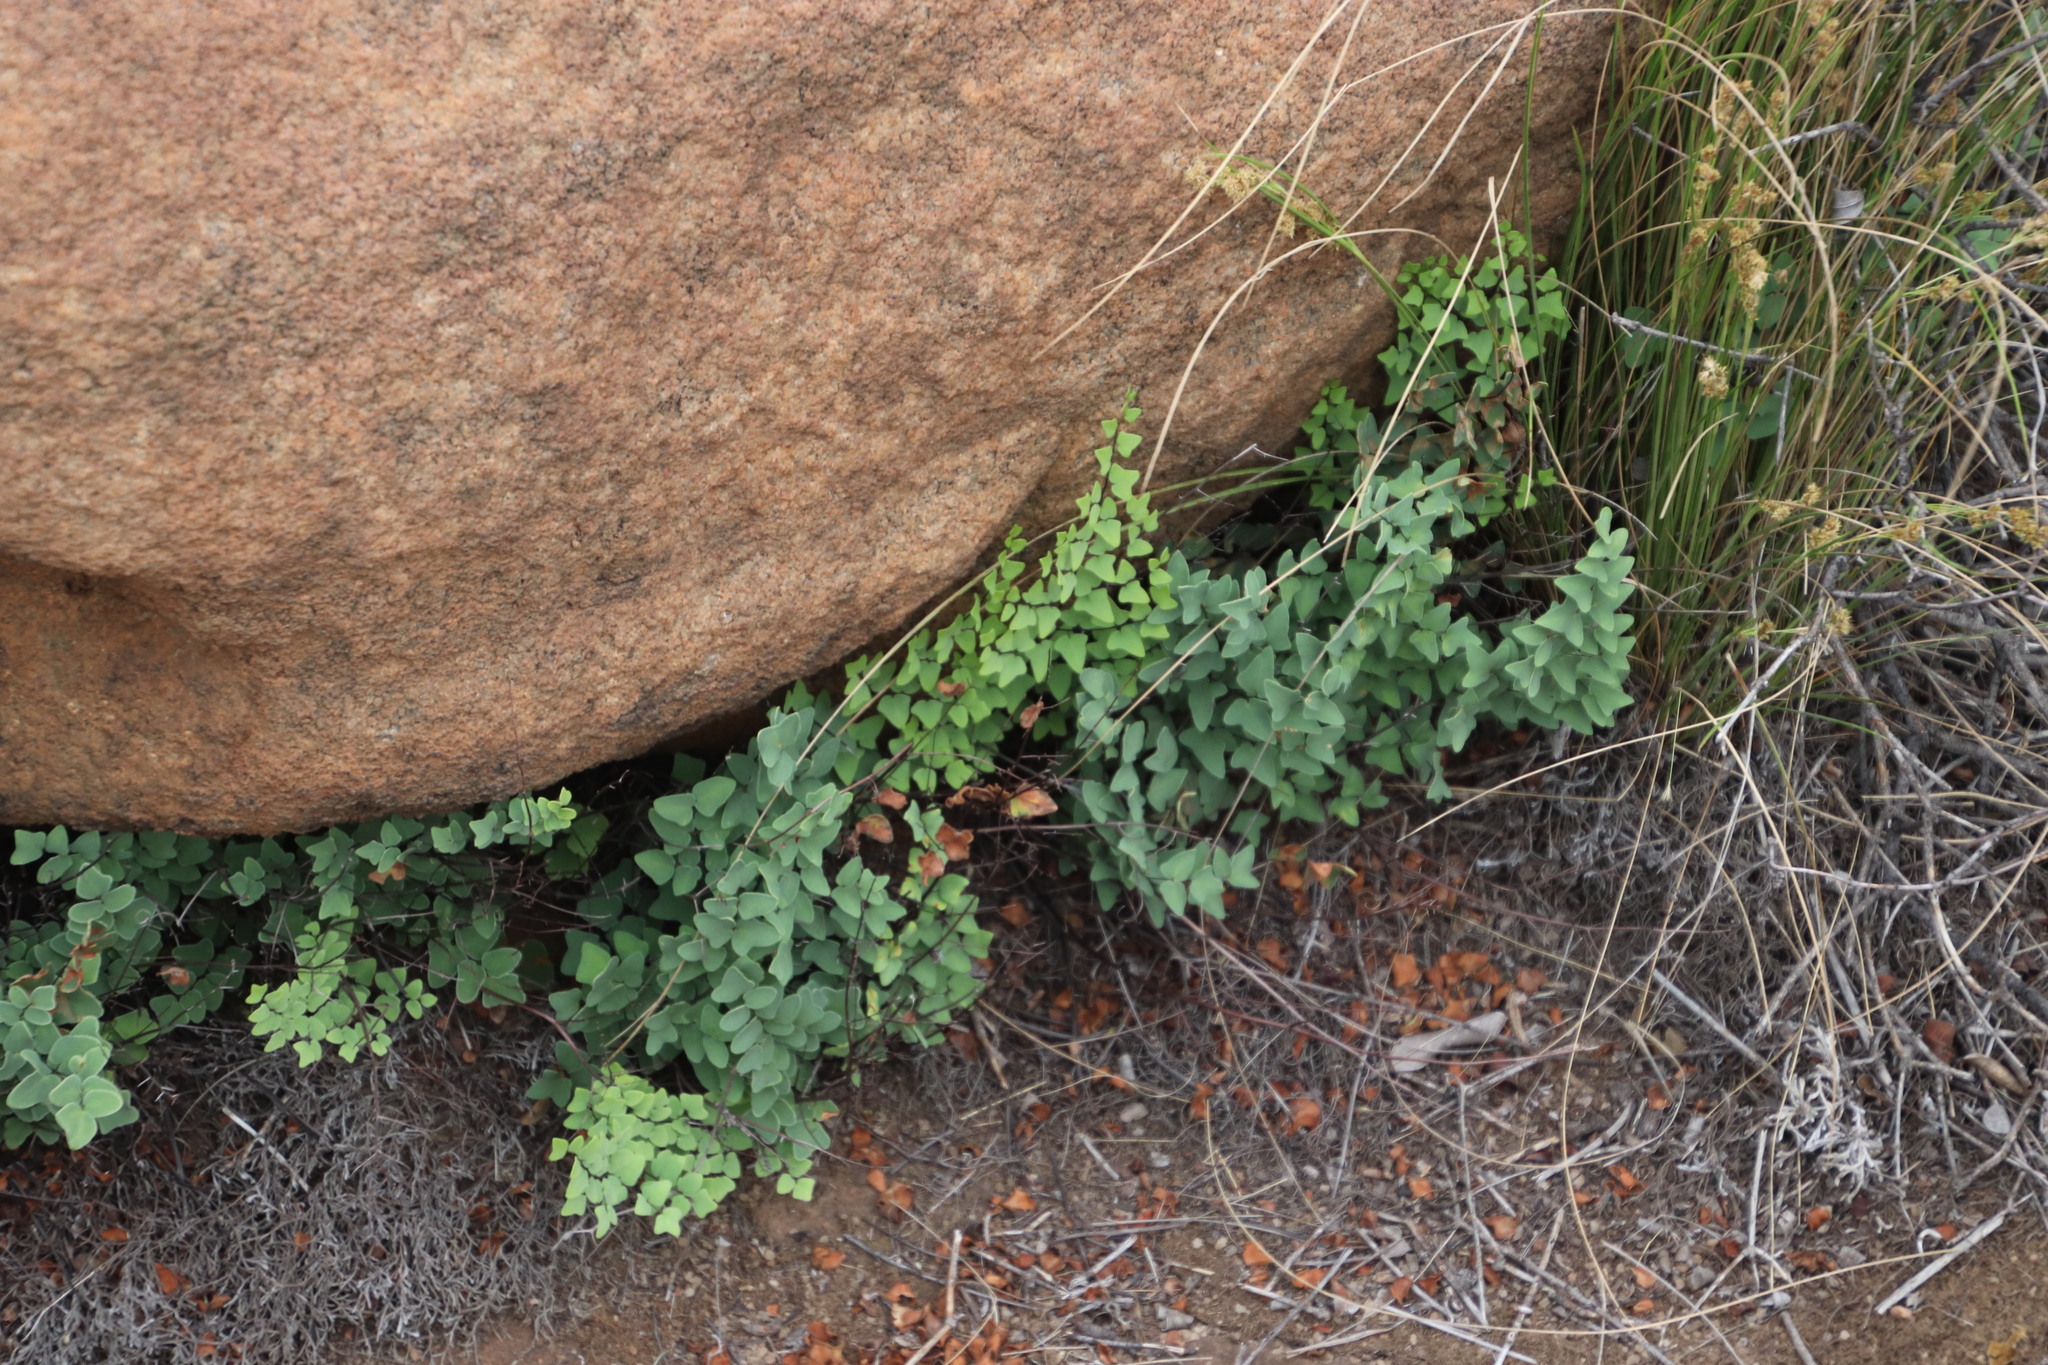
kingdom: Plantae
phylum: Tracheophyta
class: Polypodiopsida
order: Polypodiales
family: Pteridaceae
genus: Pellaea
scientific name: Pellaea calomelanos
